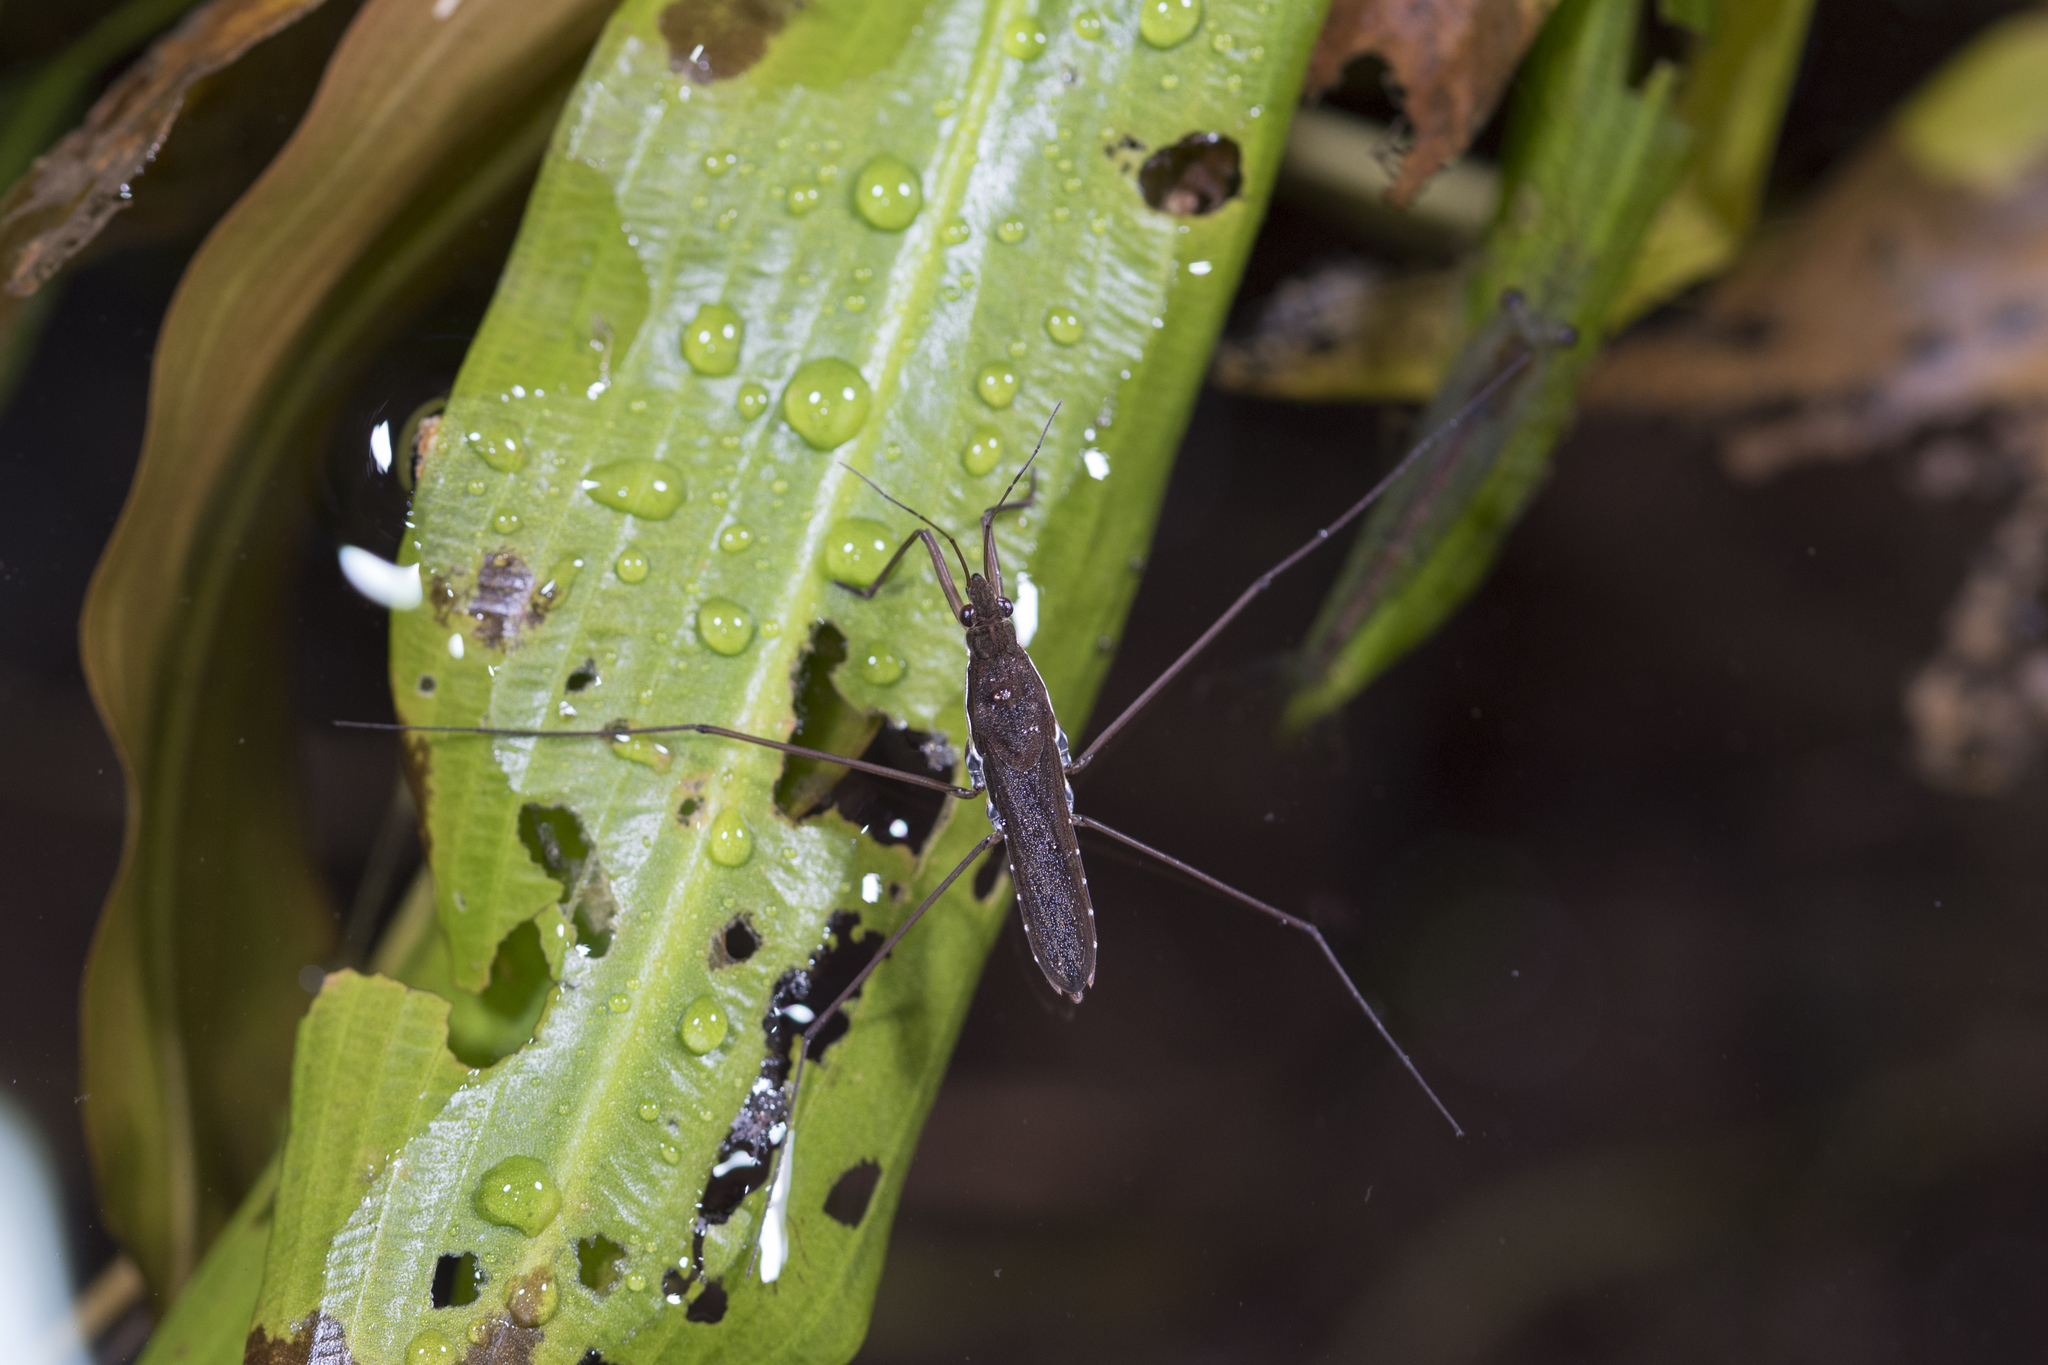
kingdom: Animalia
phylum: Arthropoda
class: Insecta
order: Hemiptera
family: Gerridae
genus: Gerris
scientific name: Gerris gracilicornis
